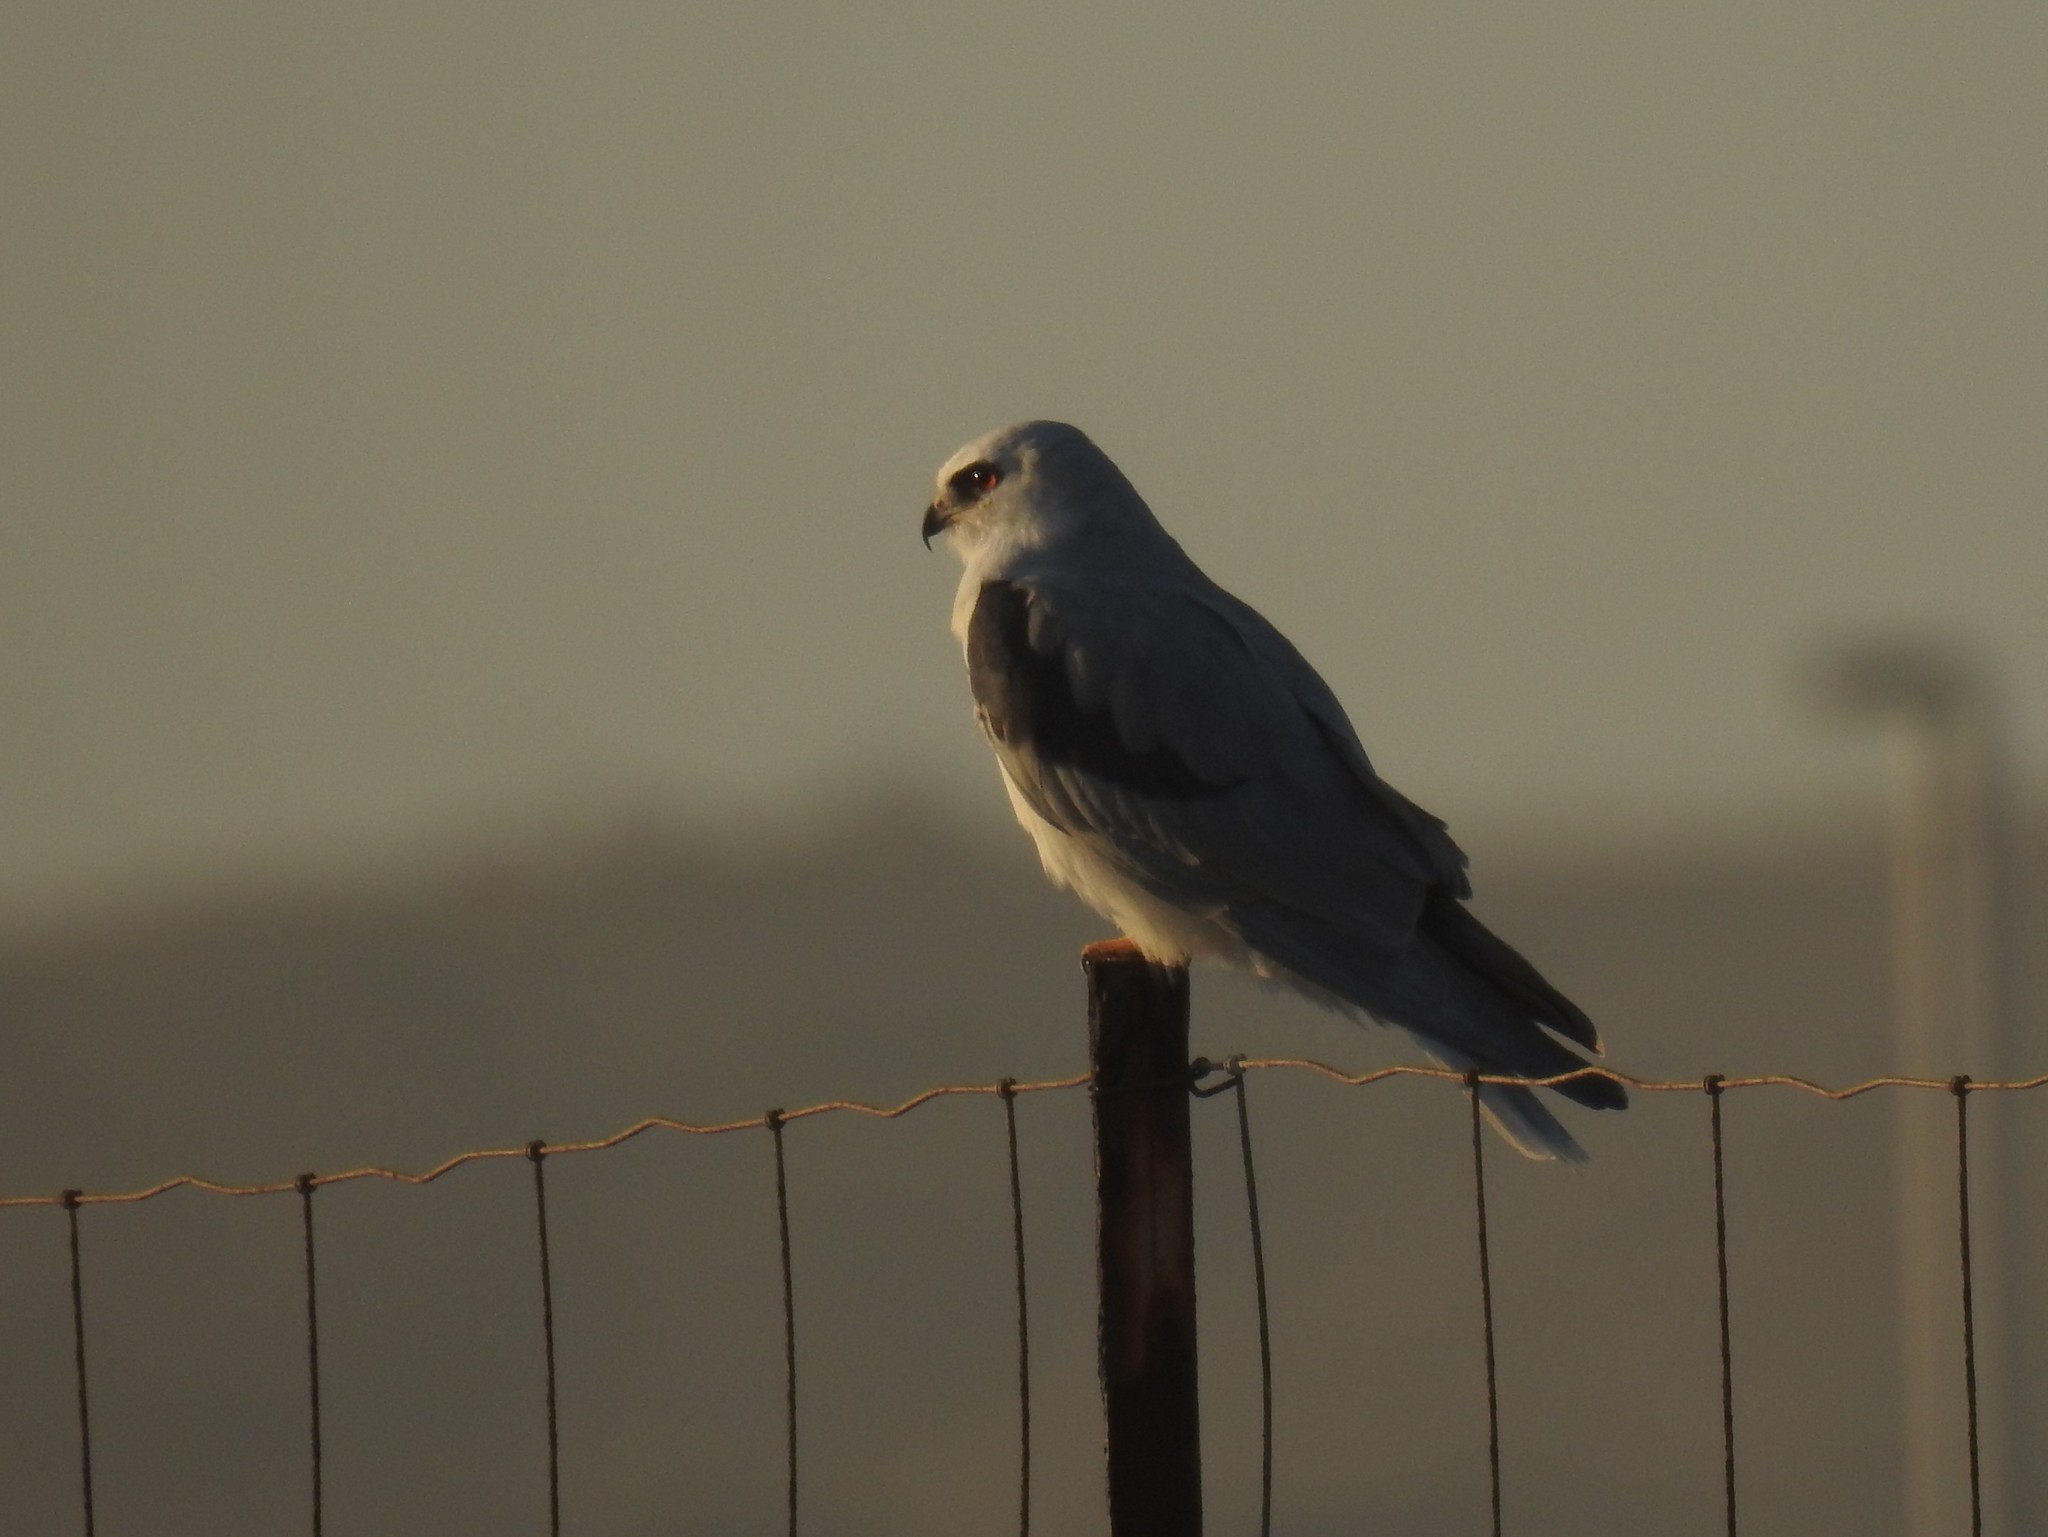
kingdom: Animalia
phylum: Chordata
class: Aves
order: Accipitriformes
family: Accipitridae
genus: Elanus
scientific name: Elanus leucurus
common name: White-tailed kite
